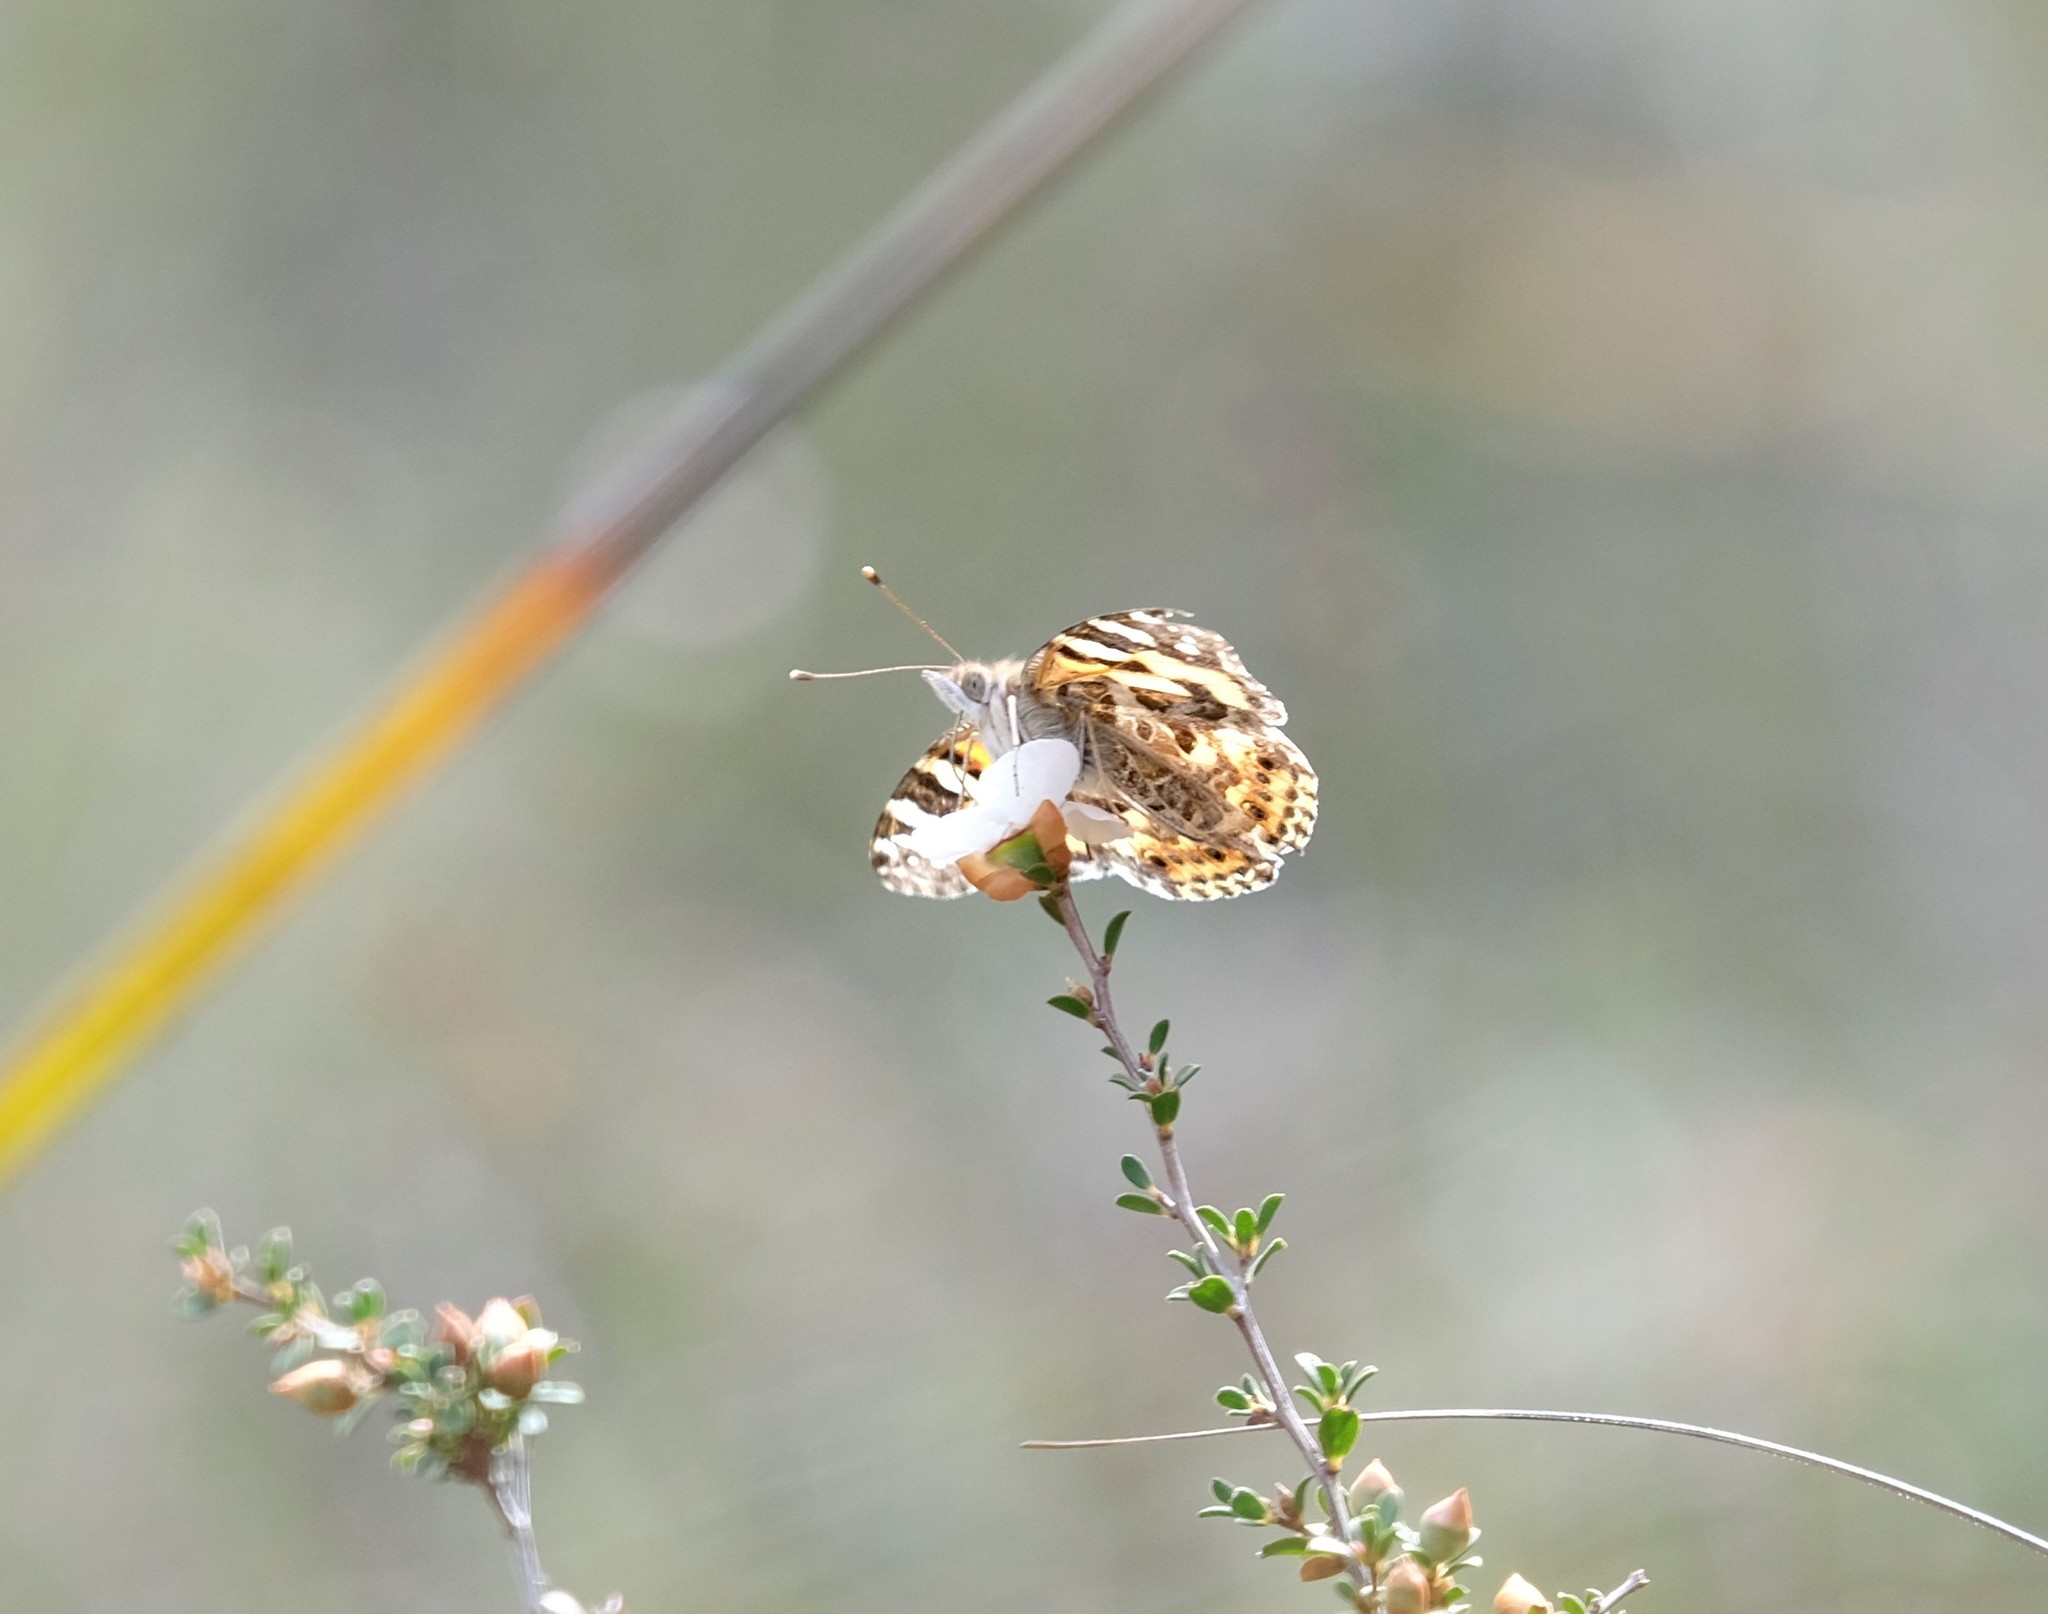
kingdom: Animalia
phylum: Arthropoda
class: Insecta
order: Lepidoptera
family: Nymphalidae
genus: Vanessa
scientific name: Vanessa kershawi
